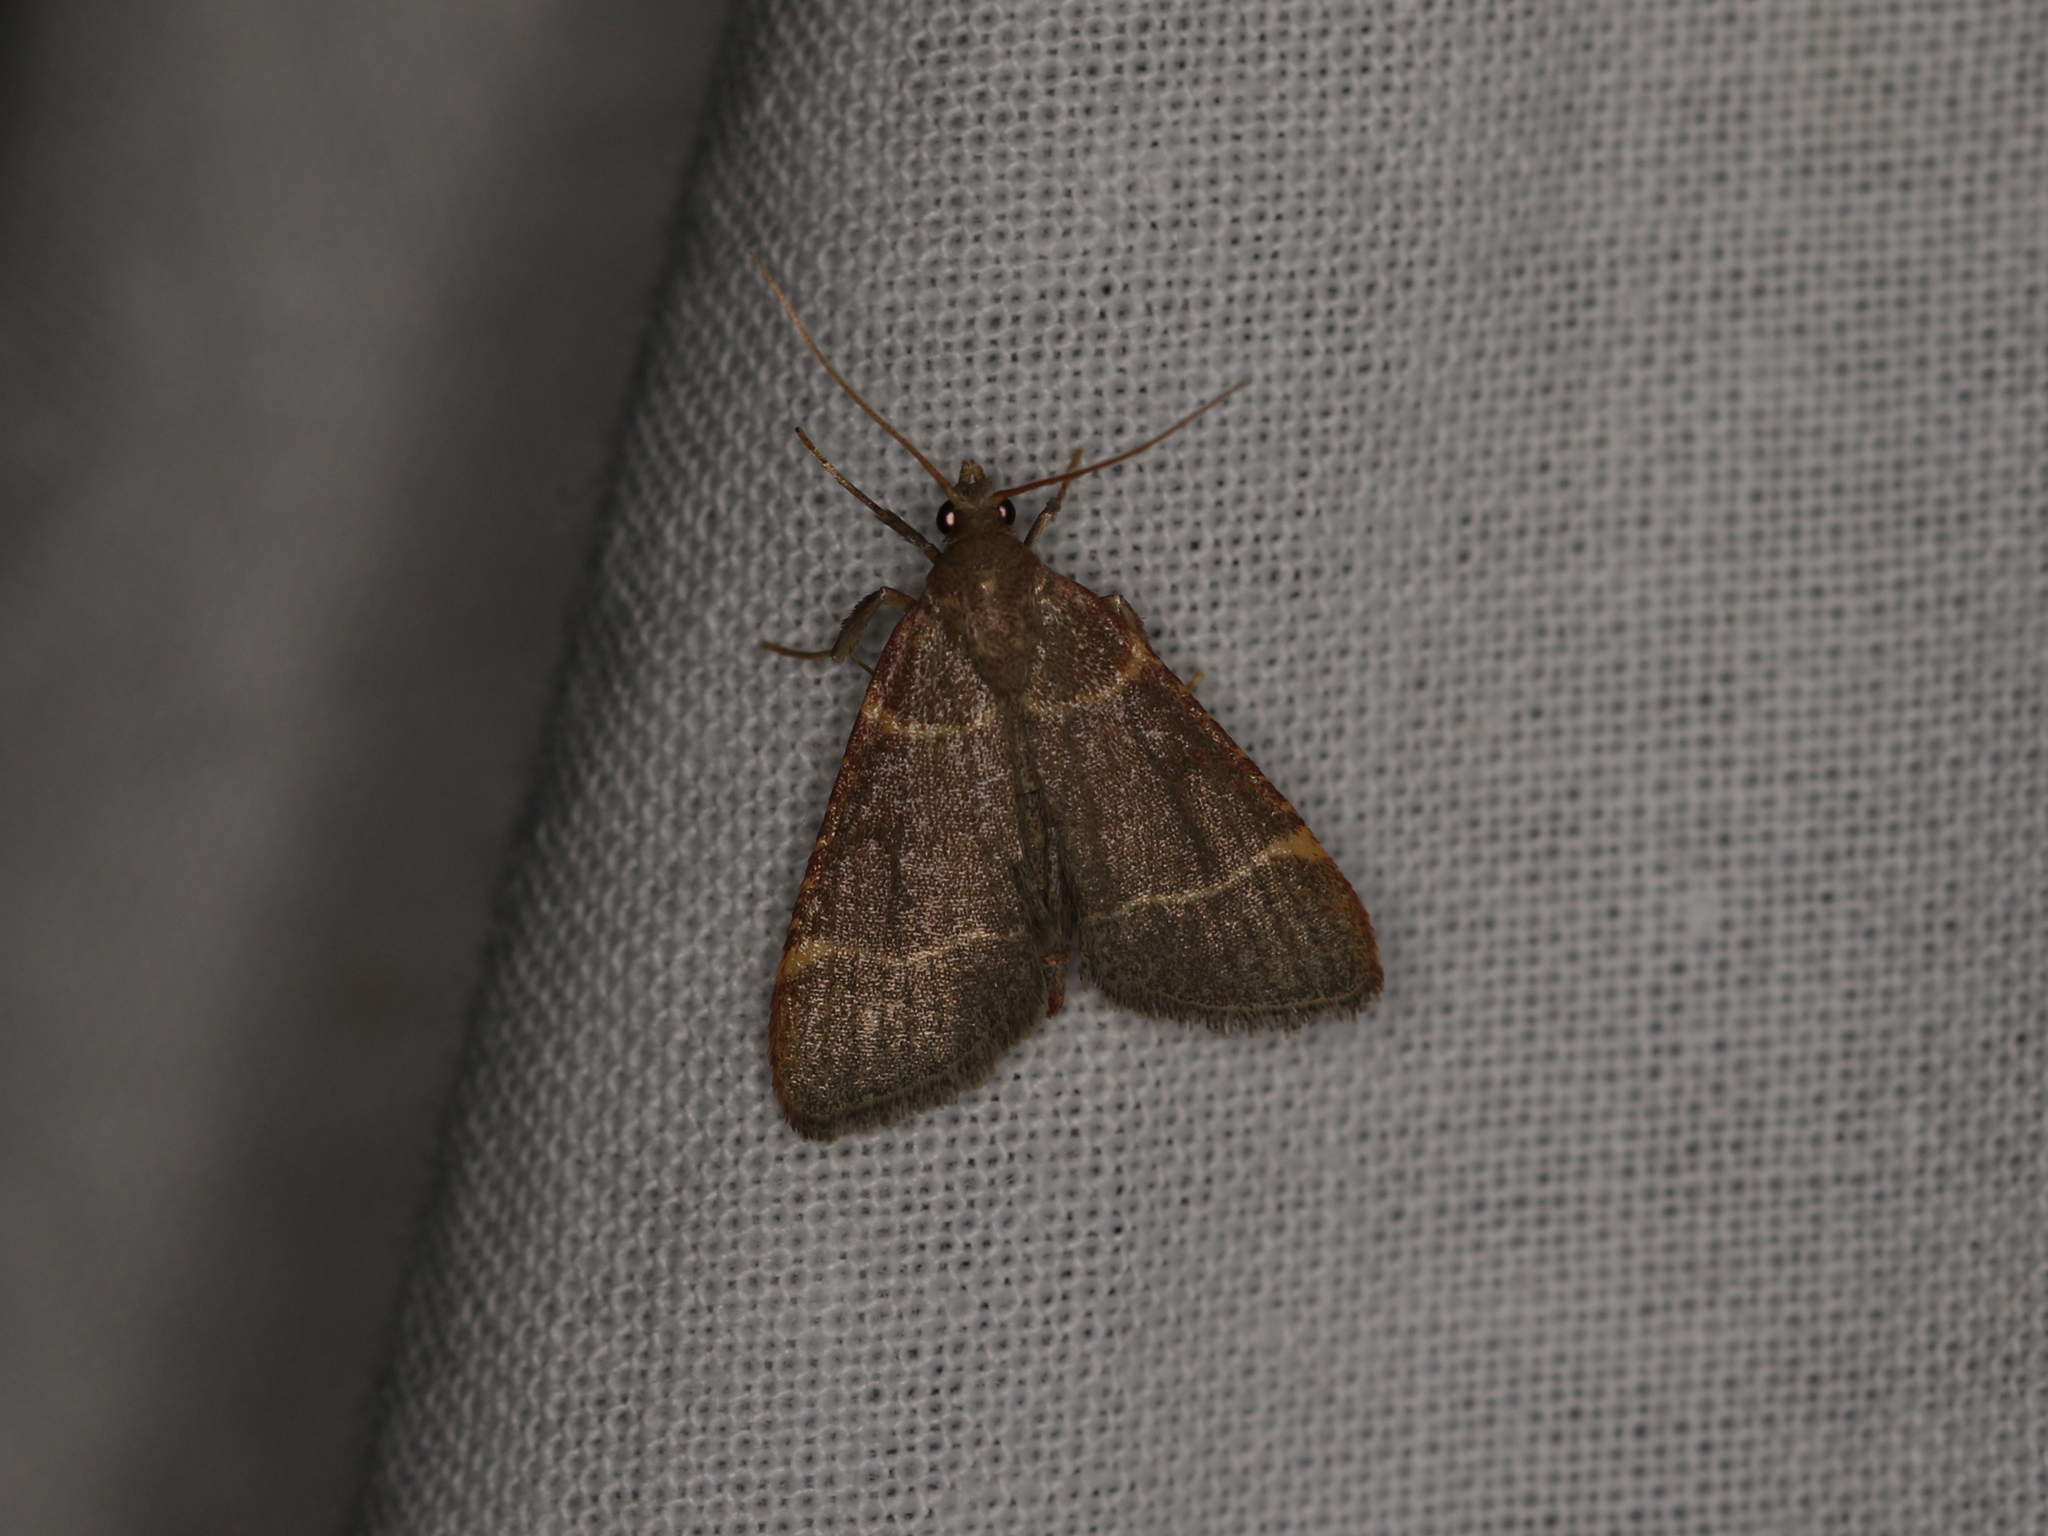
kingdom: Animalia
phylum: Arthropoda
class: Insecta
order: Lepidoptera
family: Pyralidae
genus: Hypsopygia
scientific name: Hypsopygia glaucinalis
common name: Double-striped tabby
